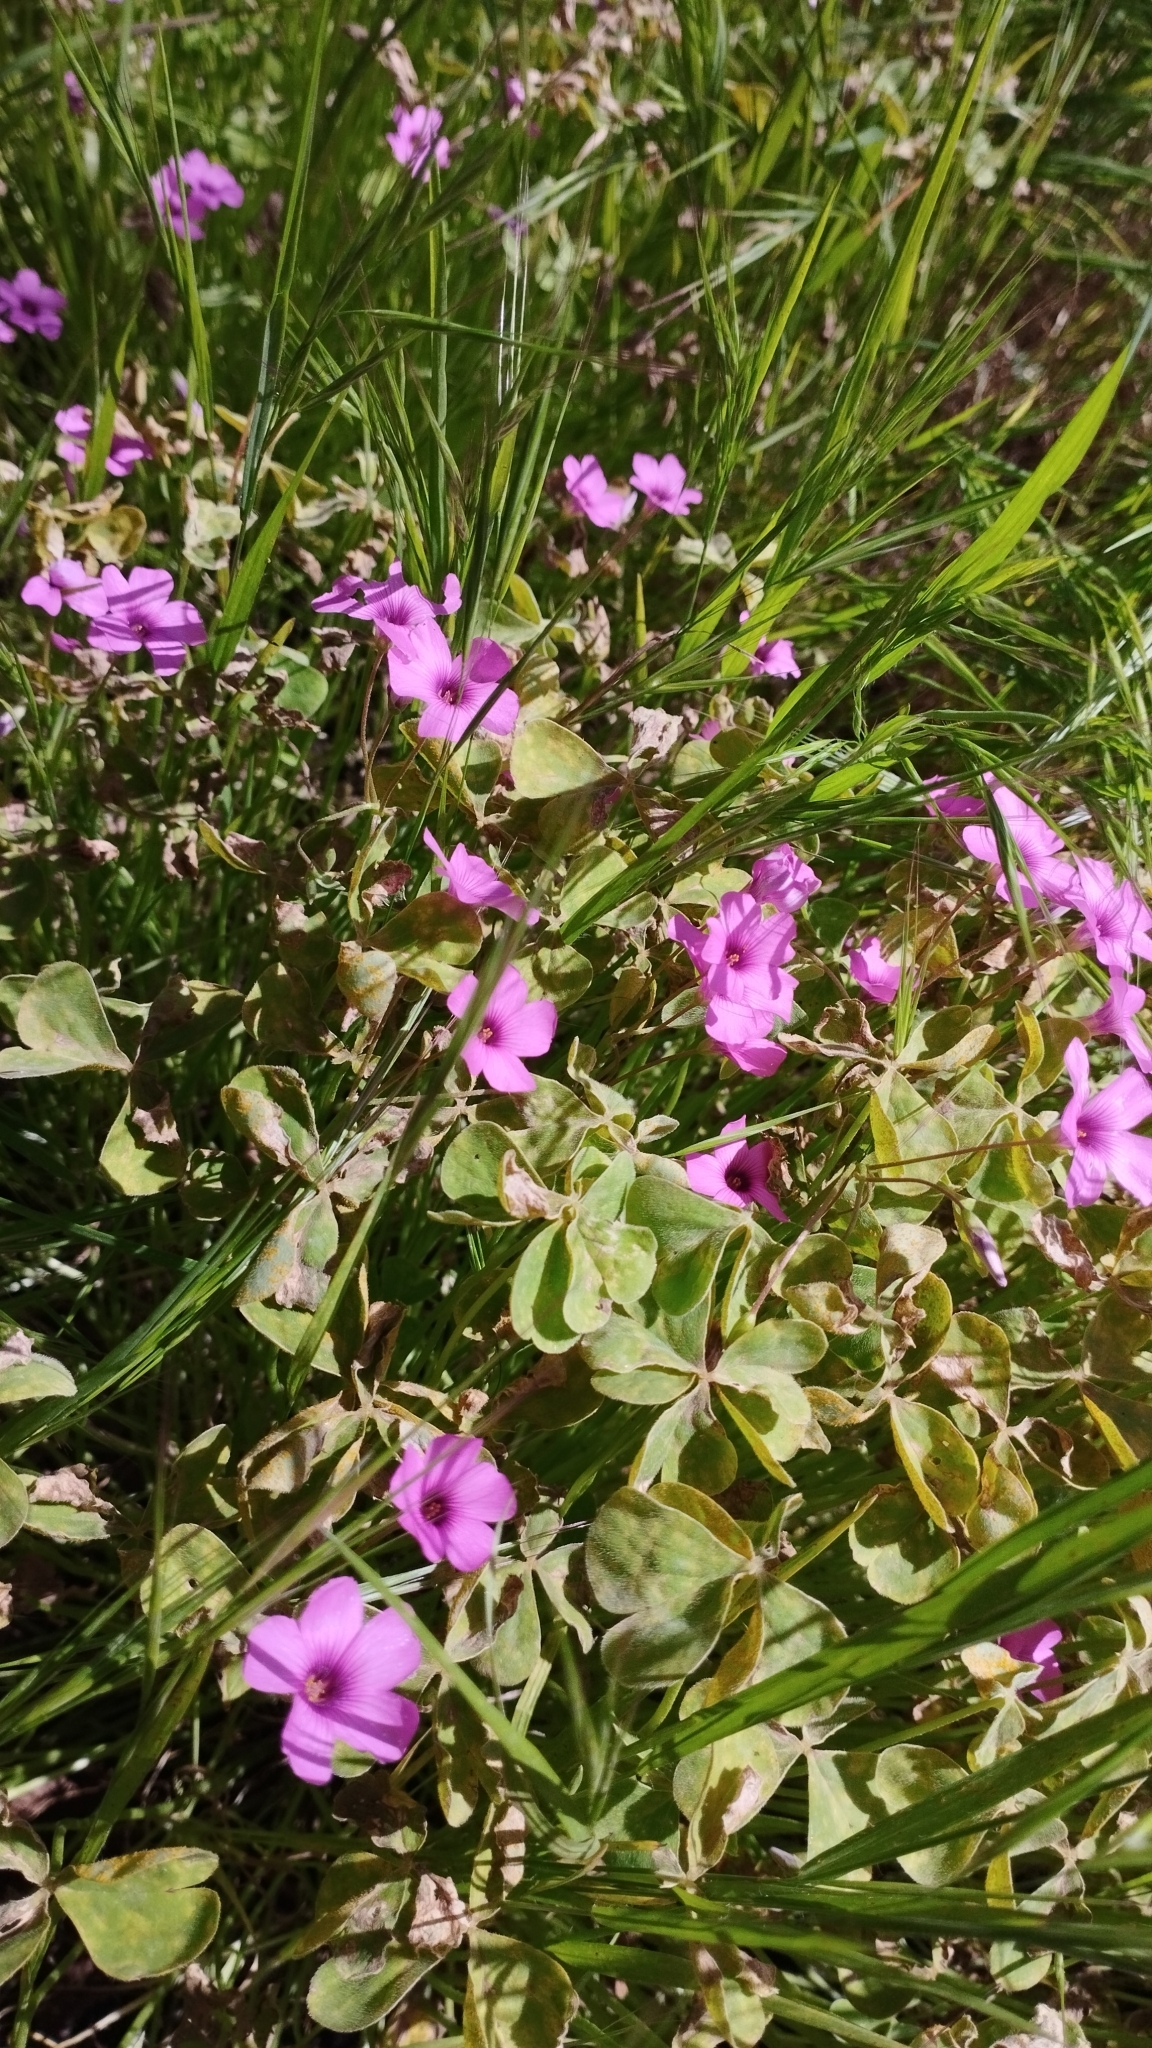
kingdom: Plantae
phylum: Tracheophyta
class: Magnoliopsida
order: Oxalidales
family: Oxalidaceae
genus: Oxalis
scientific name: Oxalis articulata
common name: Pink-sorrel
